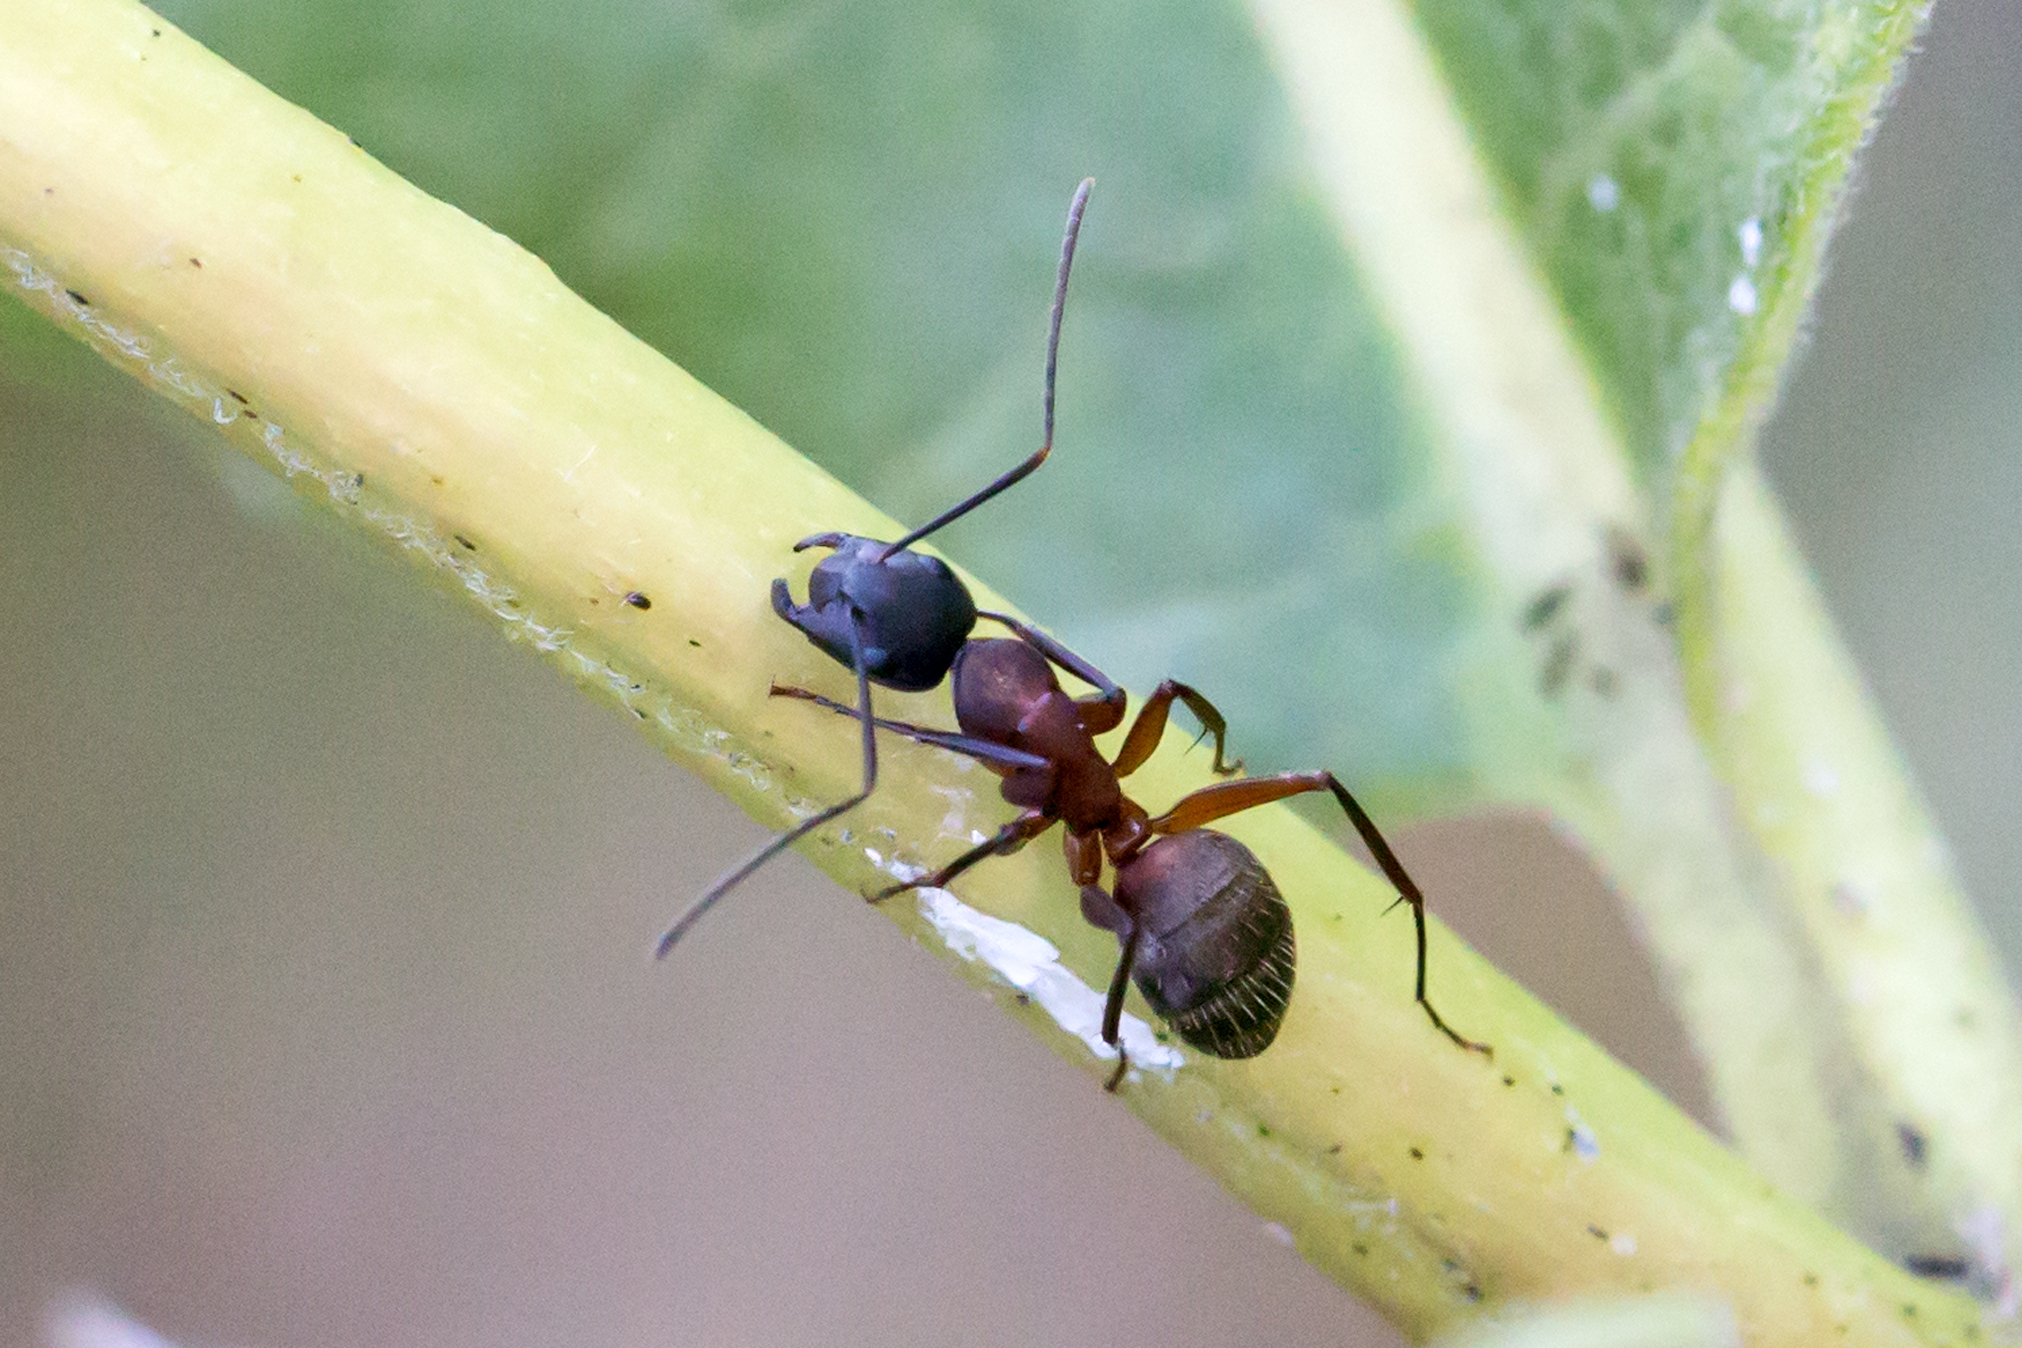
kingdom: Animalia
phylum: Arthropoda
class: Insecta
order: Hymenoptera
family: Formicidae
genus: Camponotus
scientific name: Camponotus chromaiodes
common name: Red carpenter ant
